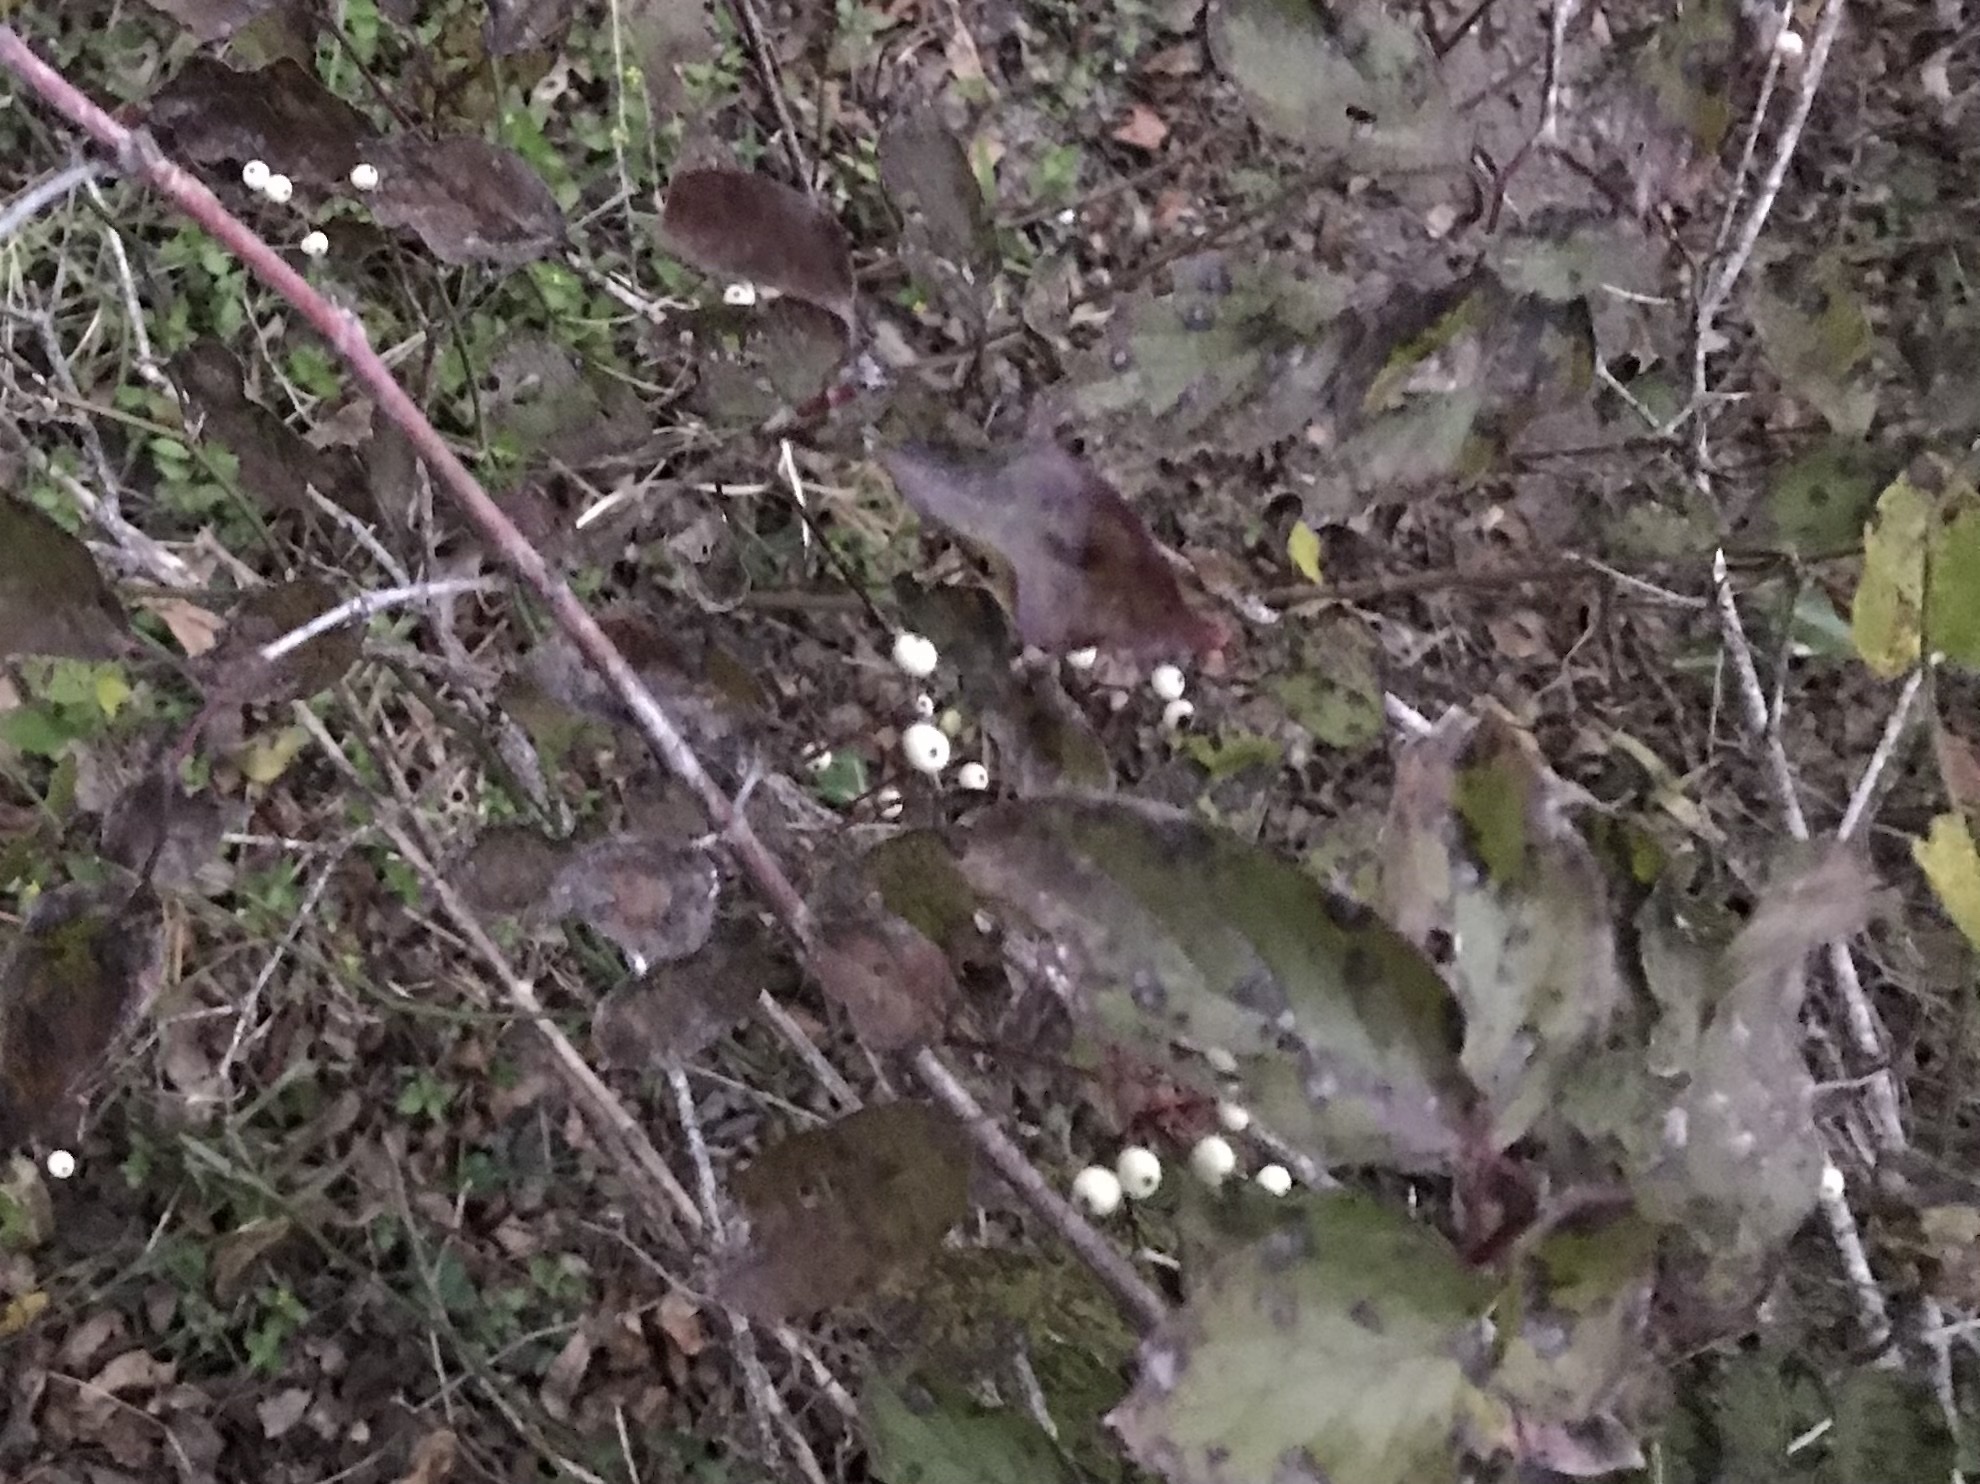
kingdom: Plantae
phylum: Tracheophyta
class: Magnoliopsida
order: Cornales
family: Cornaceae
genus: Cornus
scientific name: Cornus drummondii
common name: Rough-leaf dogwood
